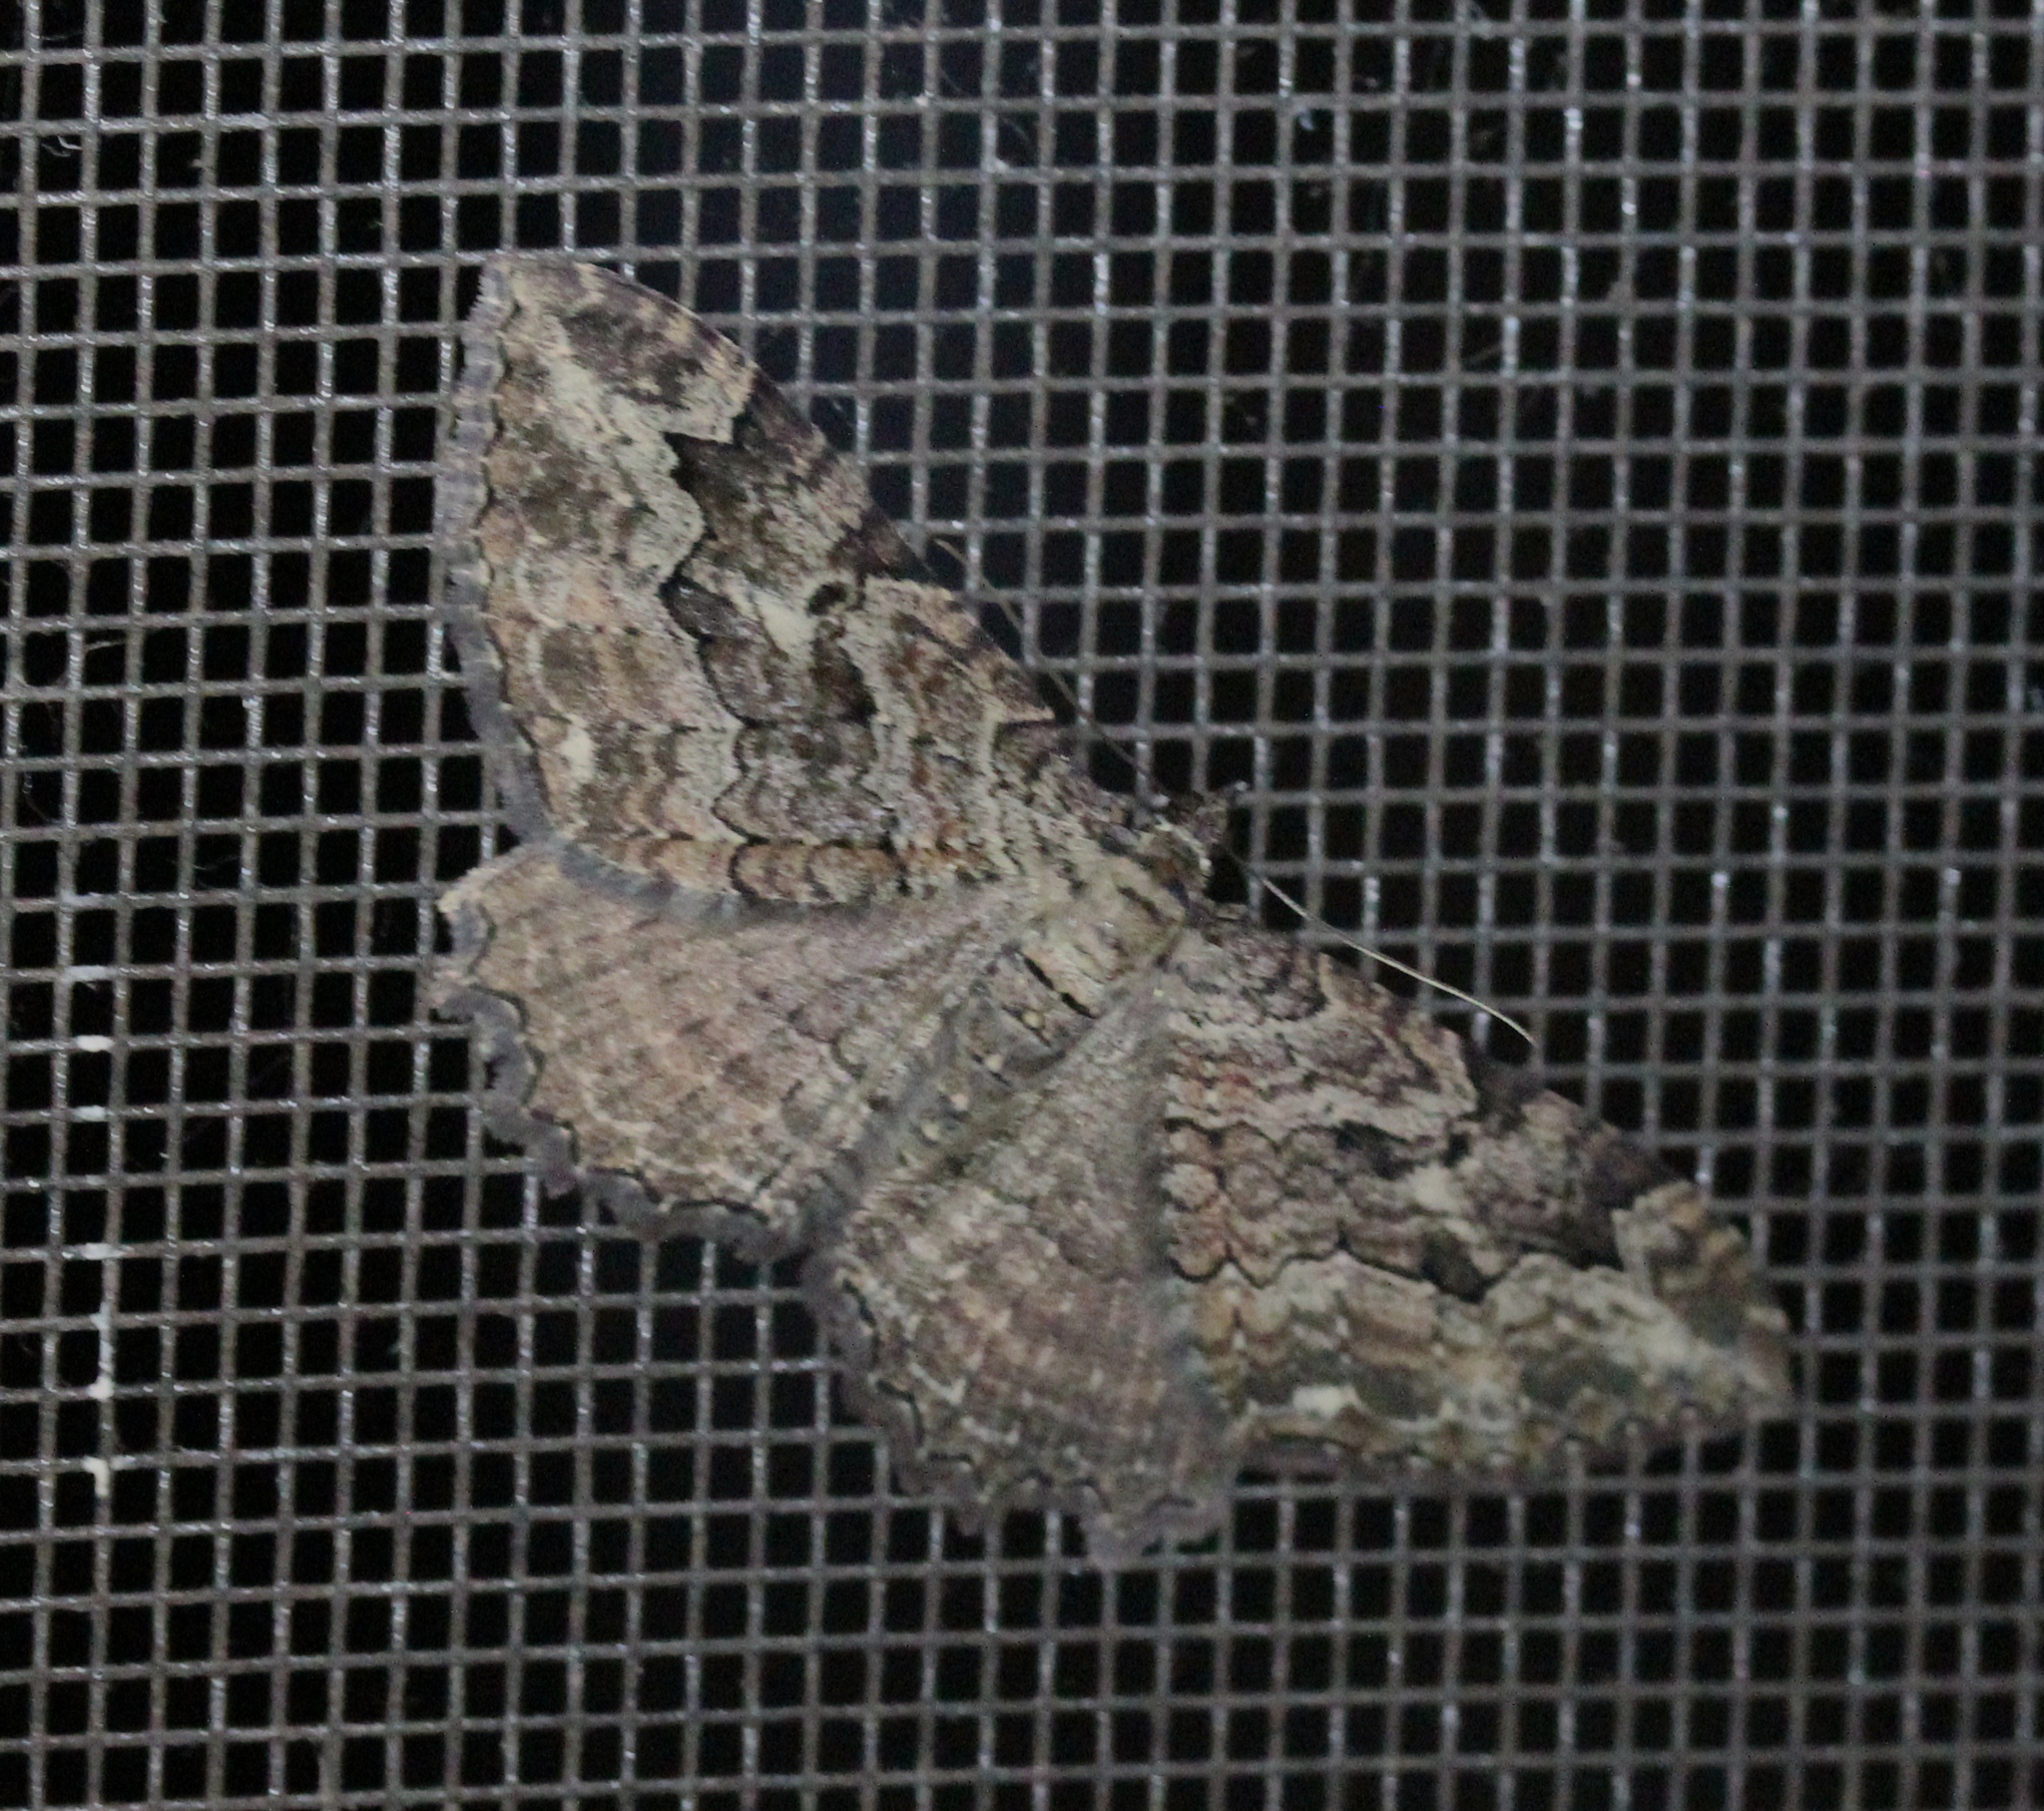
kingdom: Animalia
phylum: Arthropoda
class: Insecta
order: Lepidoptera
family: Geometridae
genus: Rheumaptera
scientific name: Rheumaptera
